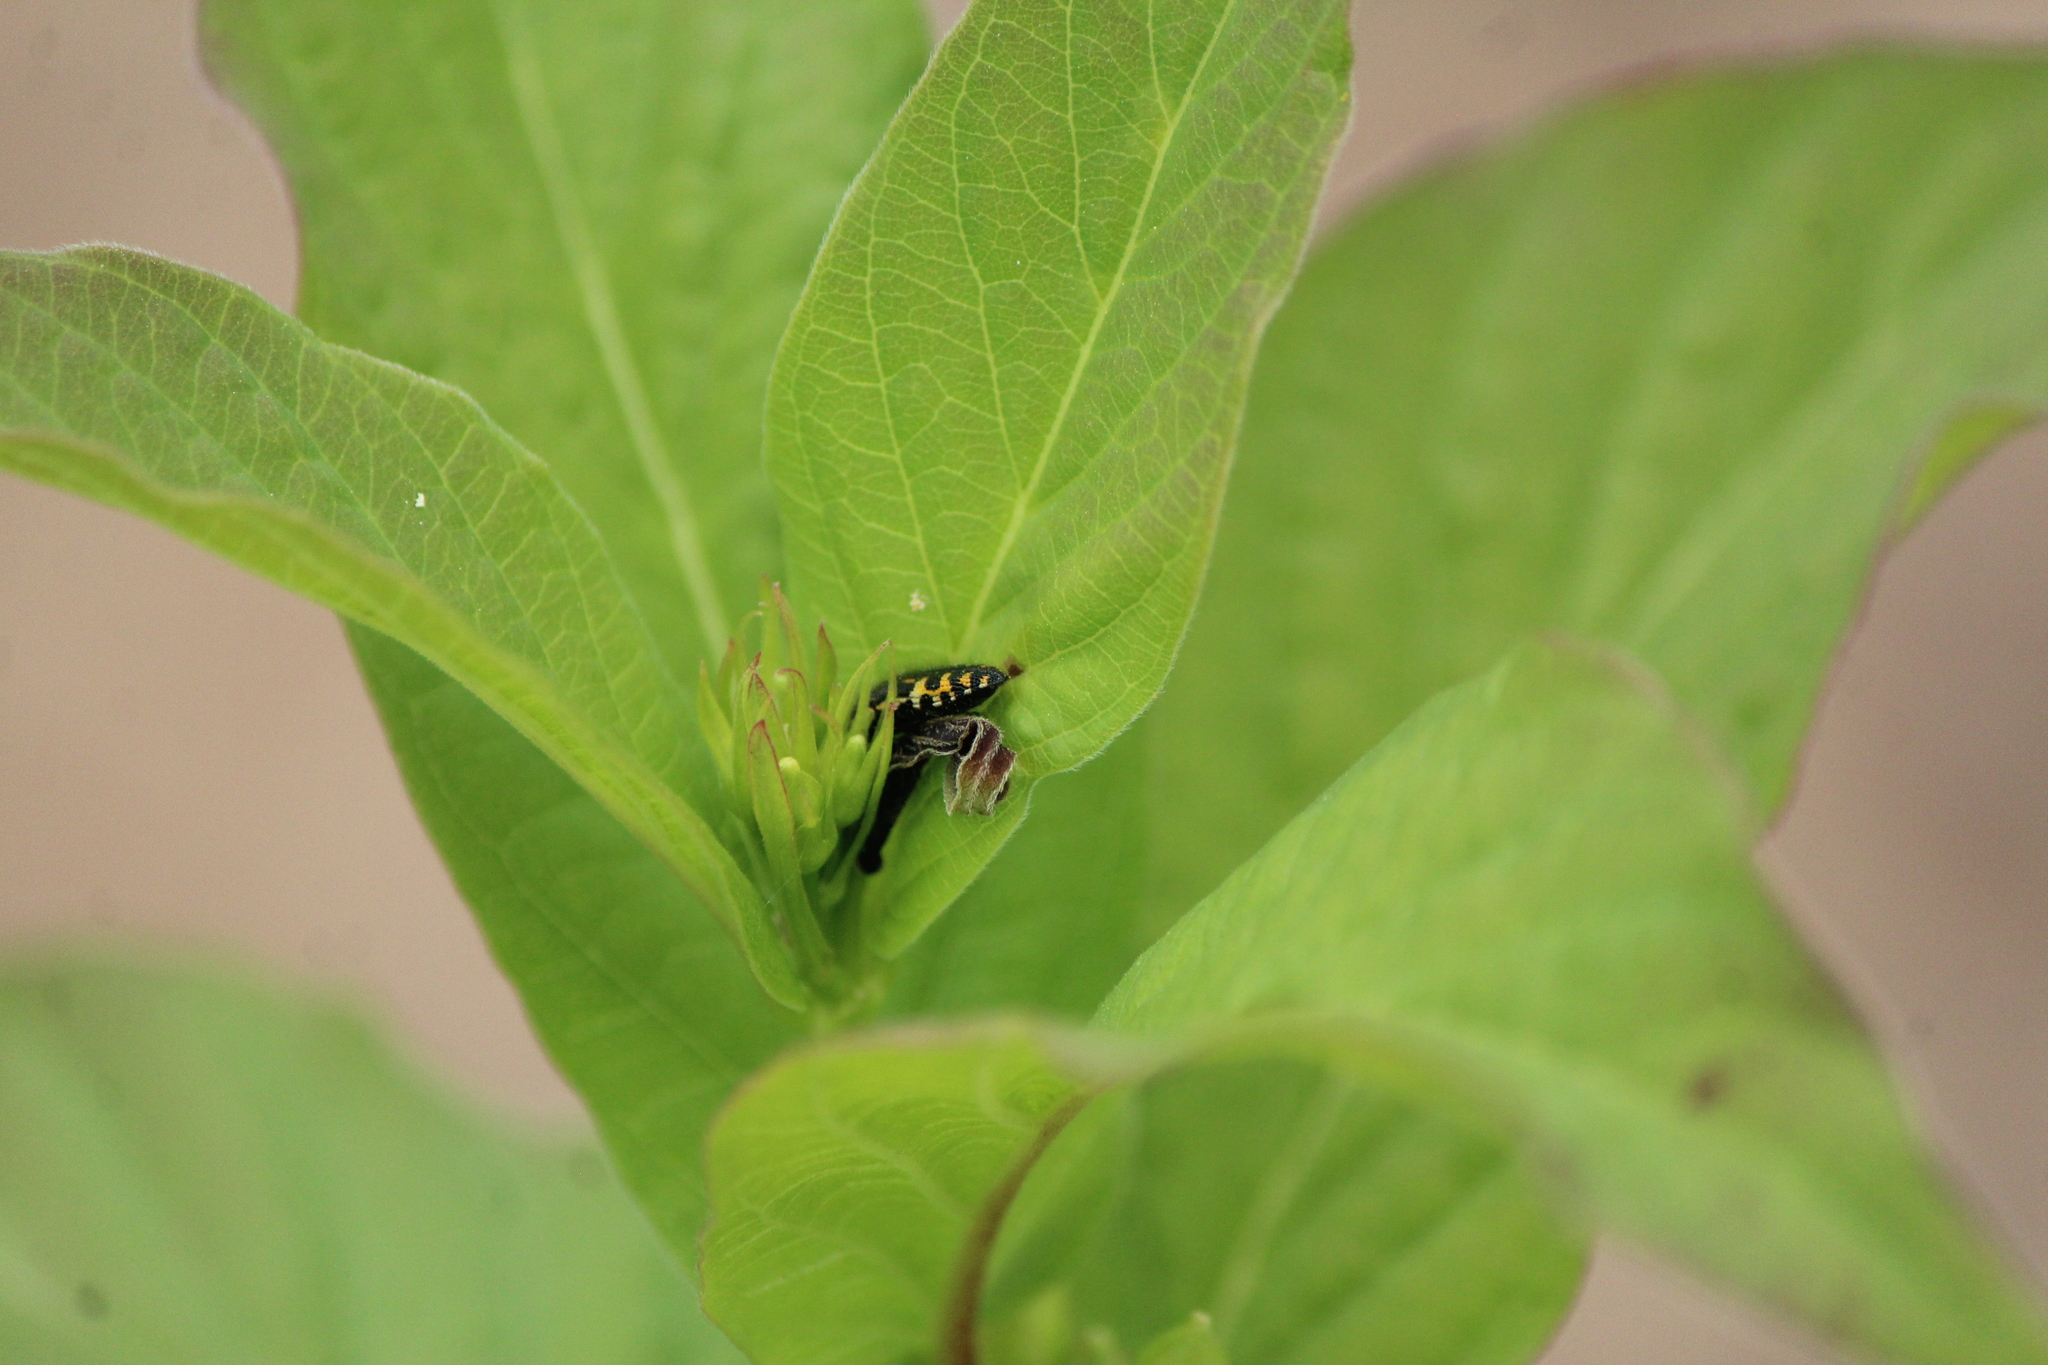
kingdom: Animalia
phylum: Arthropoda
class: Insecta
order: Coleoptera
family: Buprestidae
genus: Acmaeodera
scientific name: Acmaeodera scalaris
